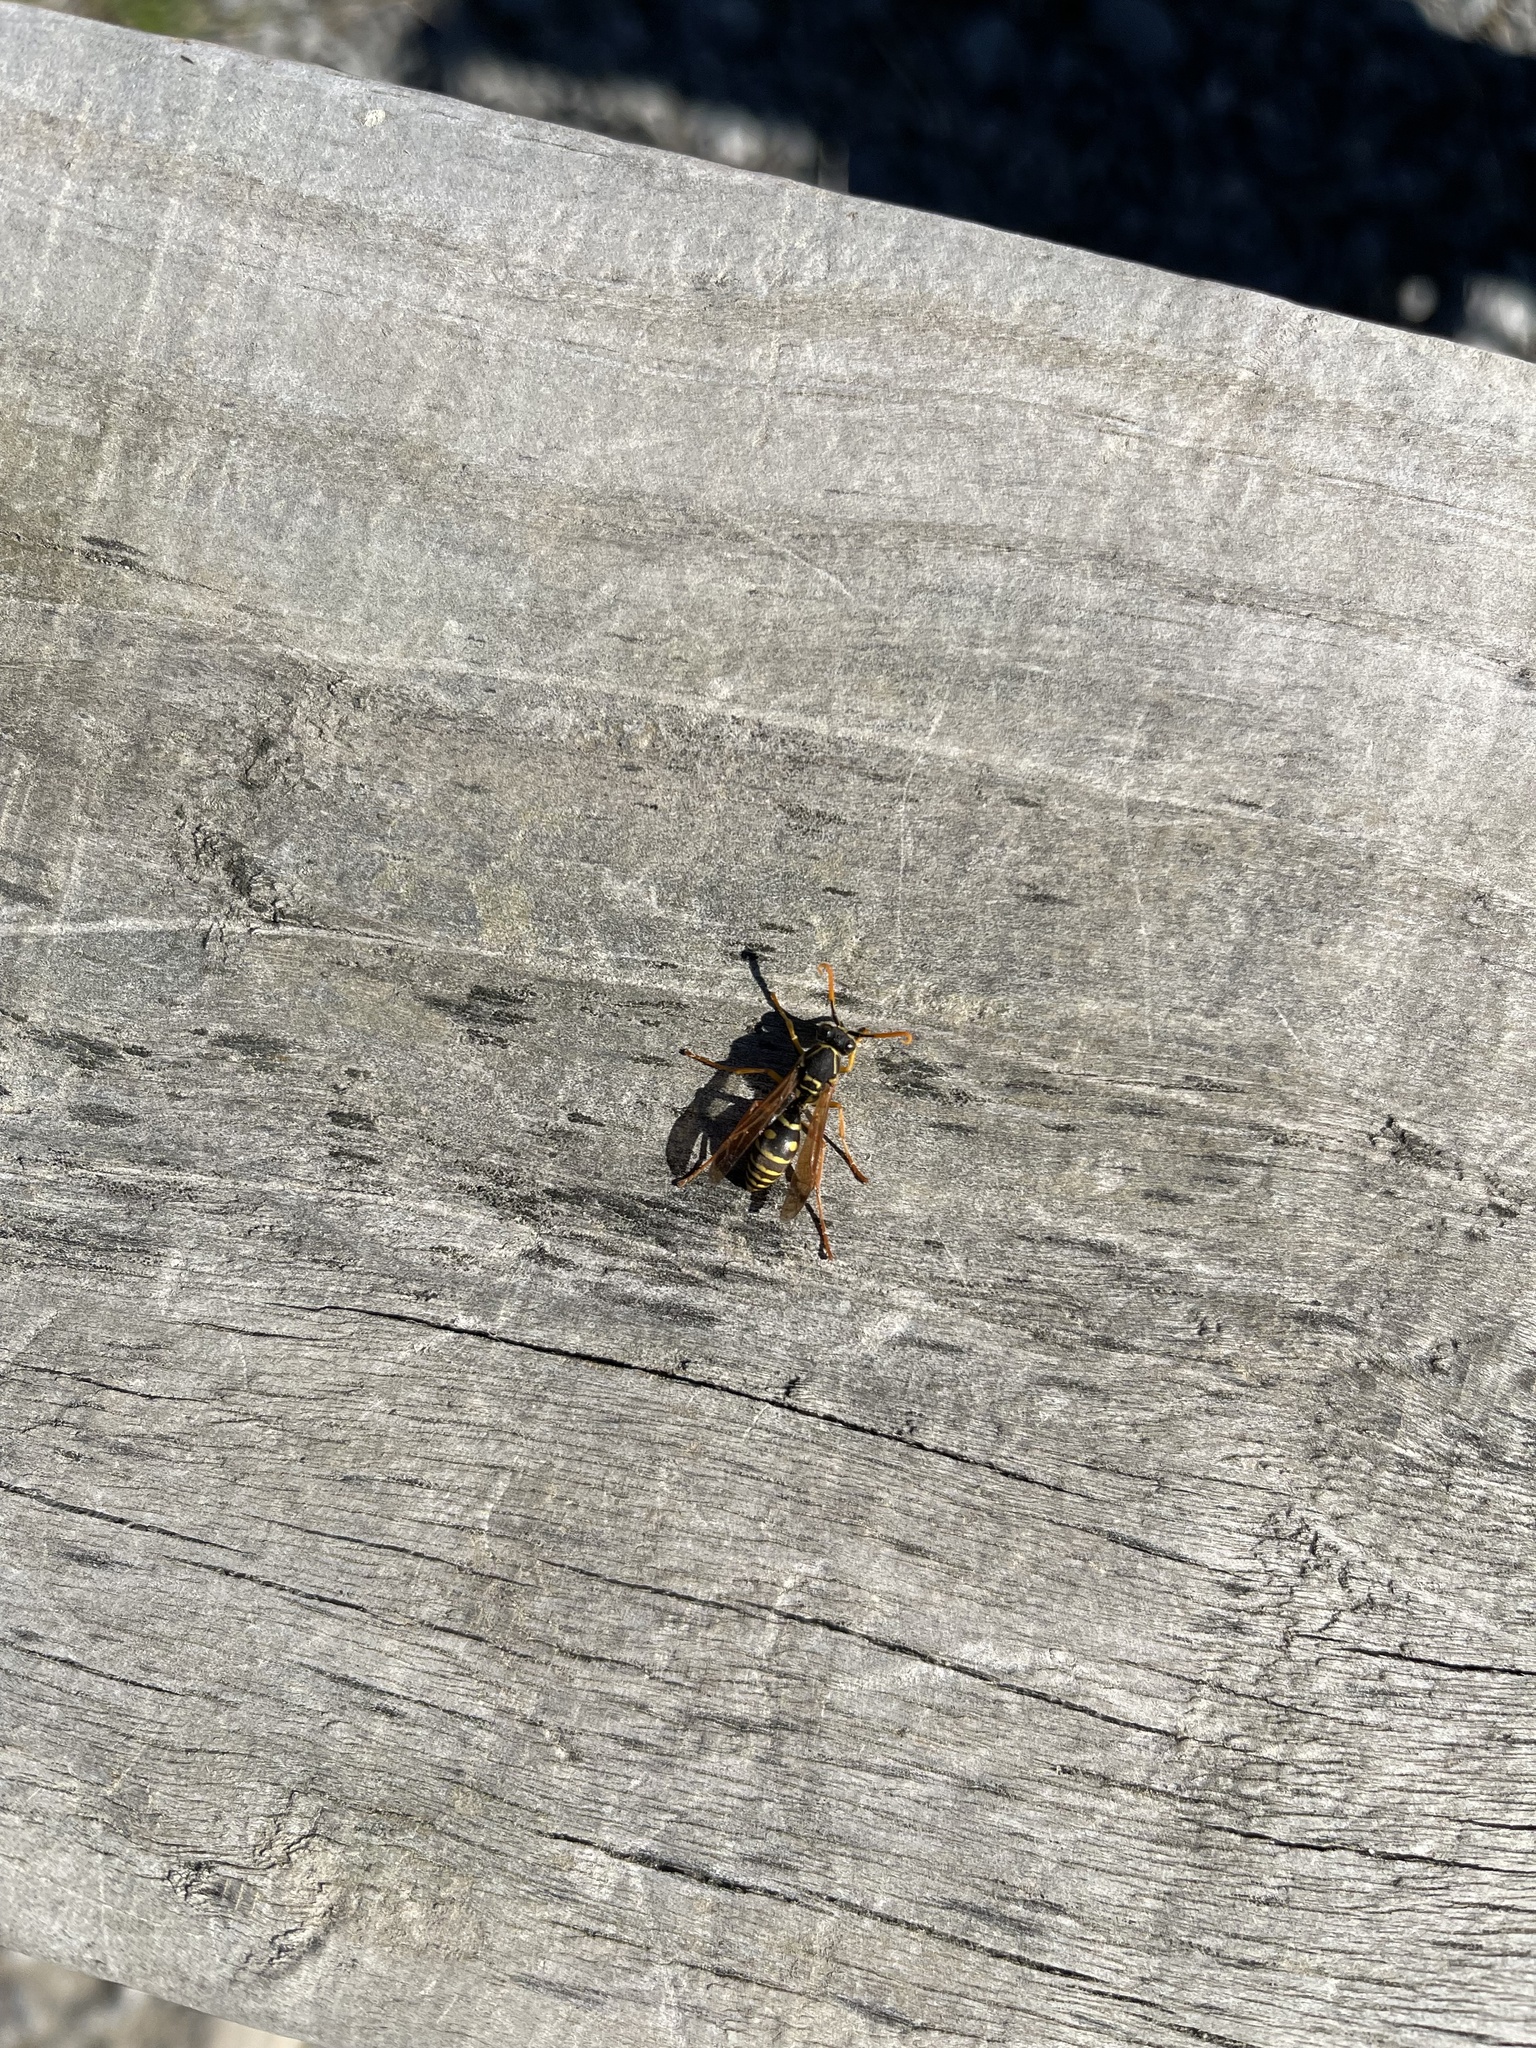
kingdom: Animalia
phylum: Arthropoda
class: Insecta
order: Hymenoptera
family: Eumenidae
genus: Polistes
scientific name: Polistes chinensis
